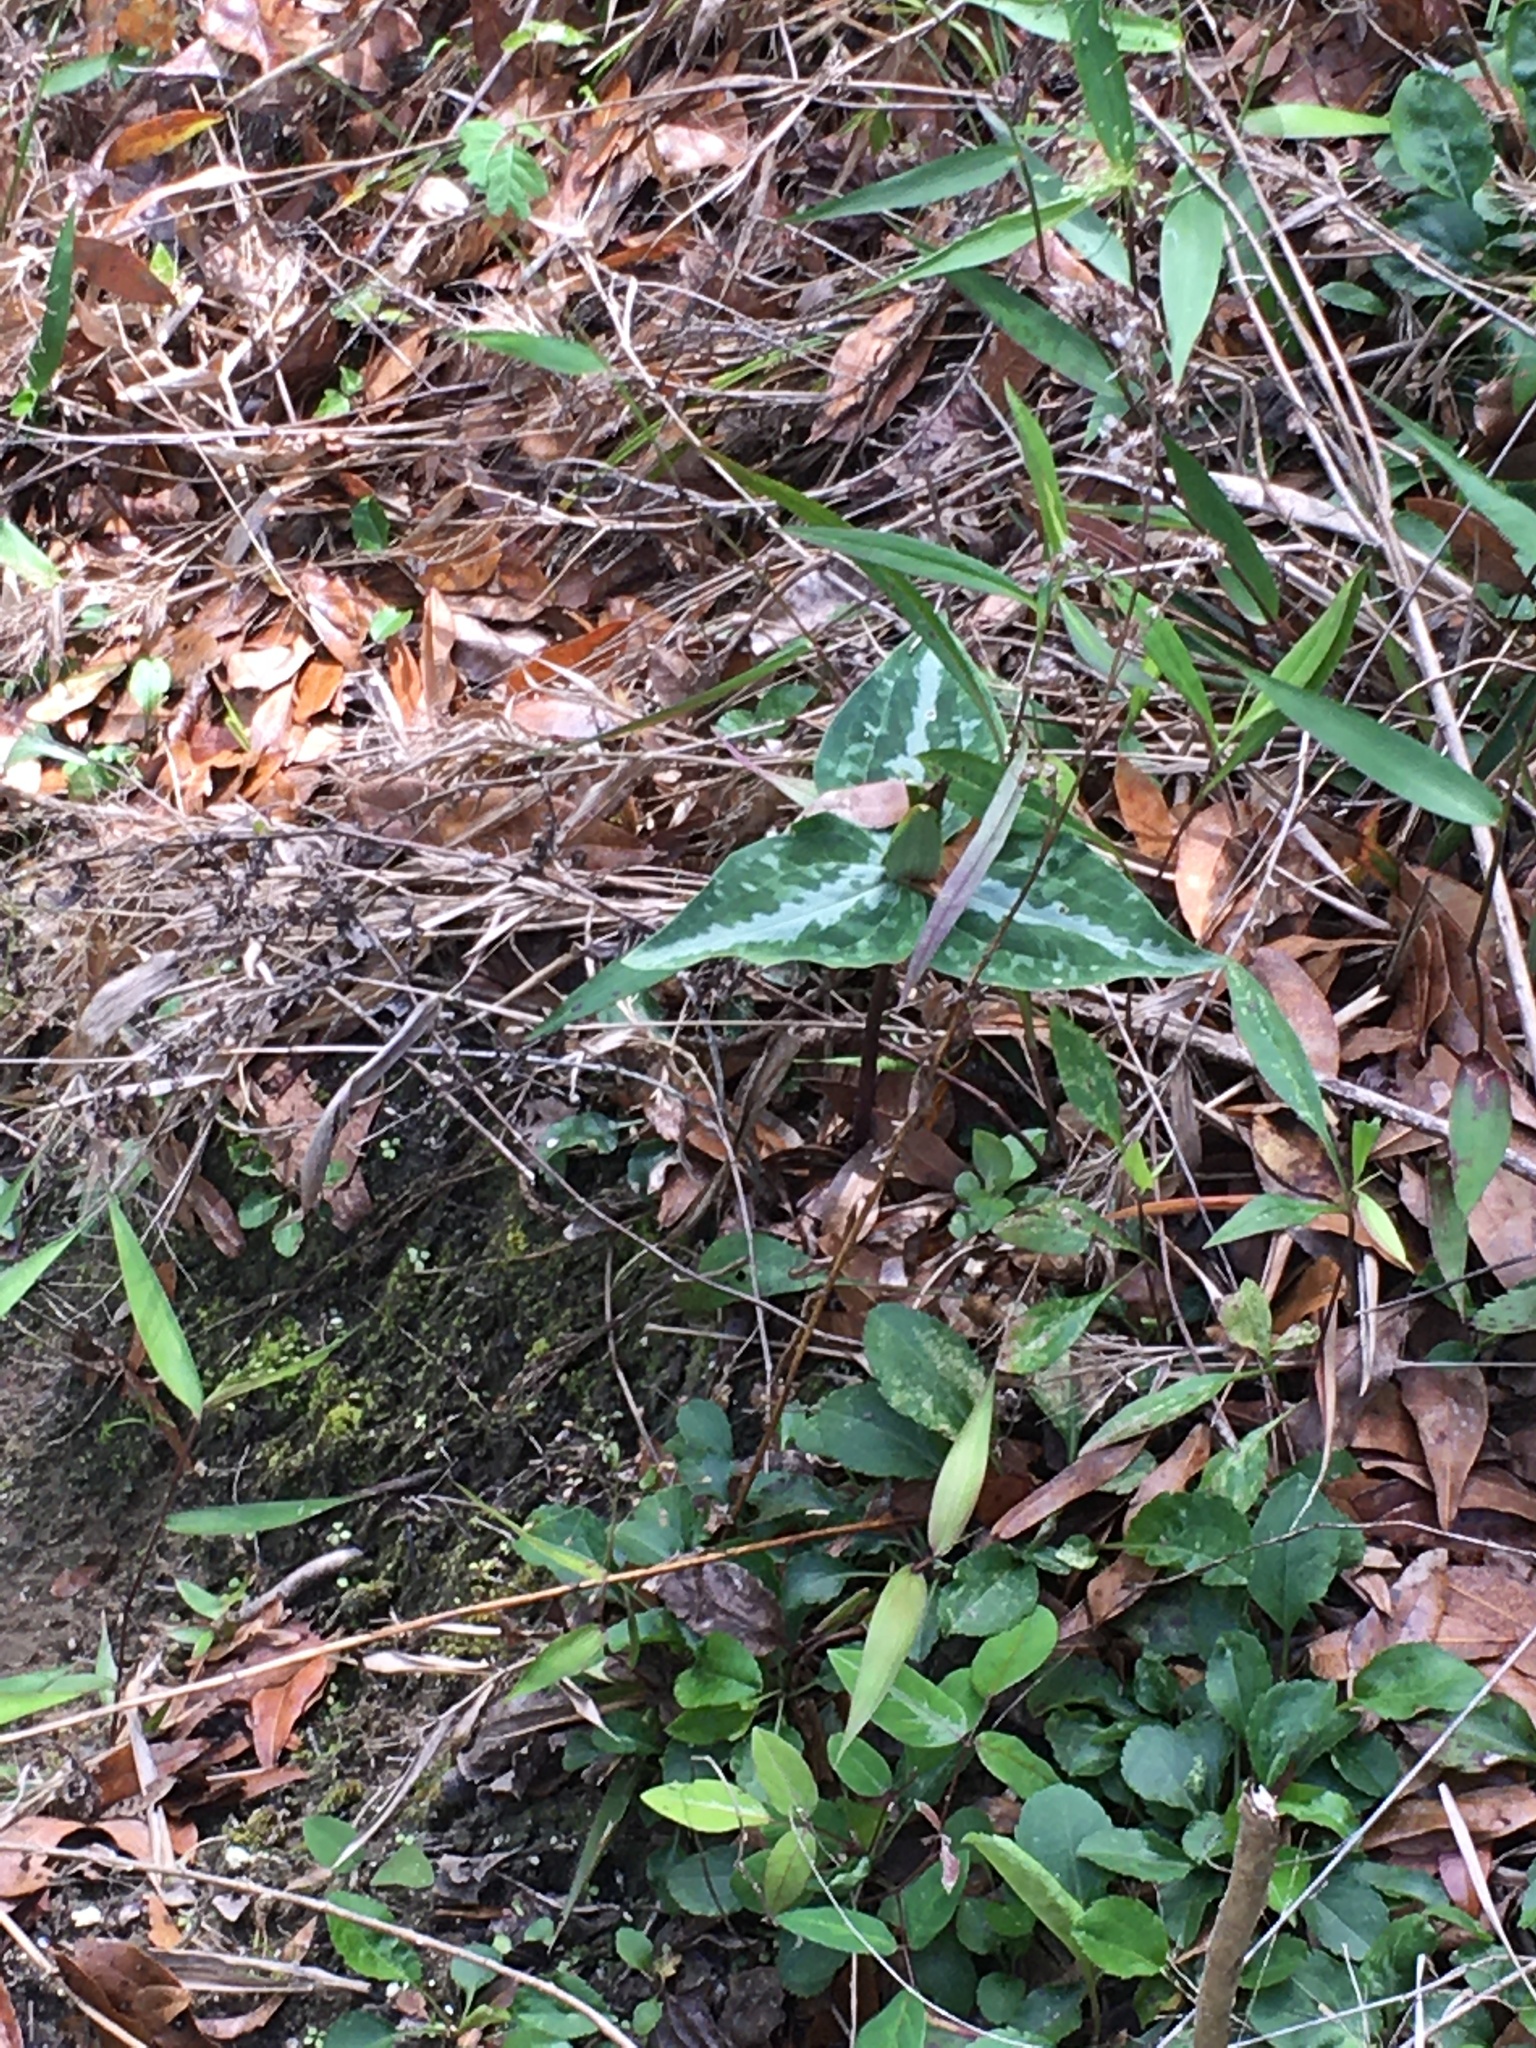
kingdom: Plantae
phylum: Tracheophyta
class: Liliopsida
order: Liliales
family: Melanthiaceae
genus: Trillium
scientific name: Trillium decipiens
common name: Chattahoochee river trillium
